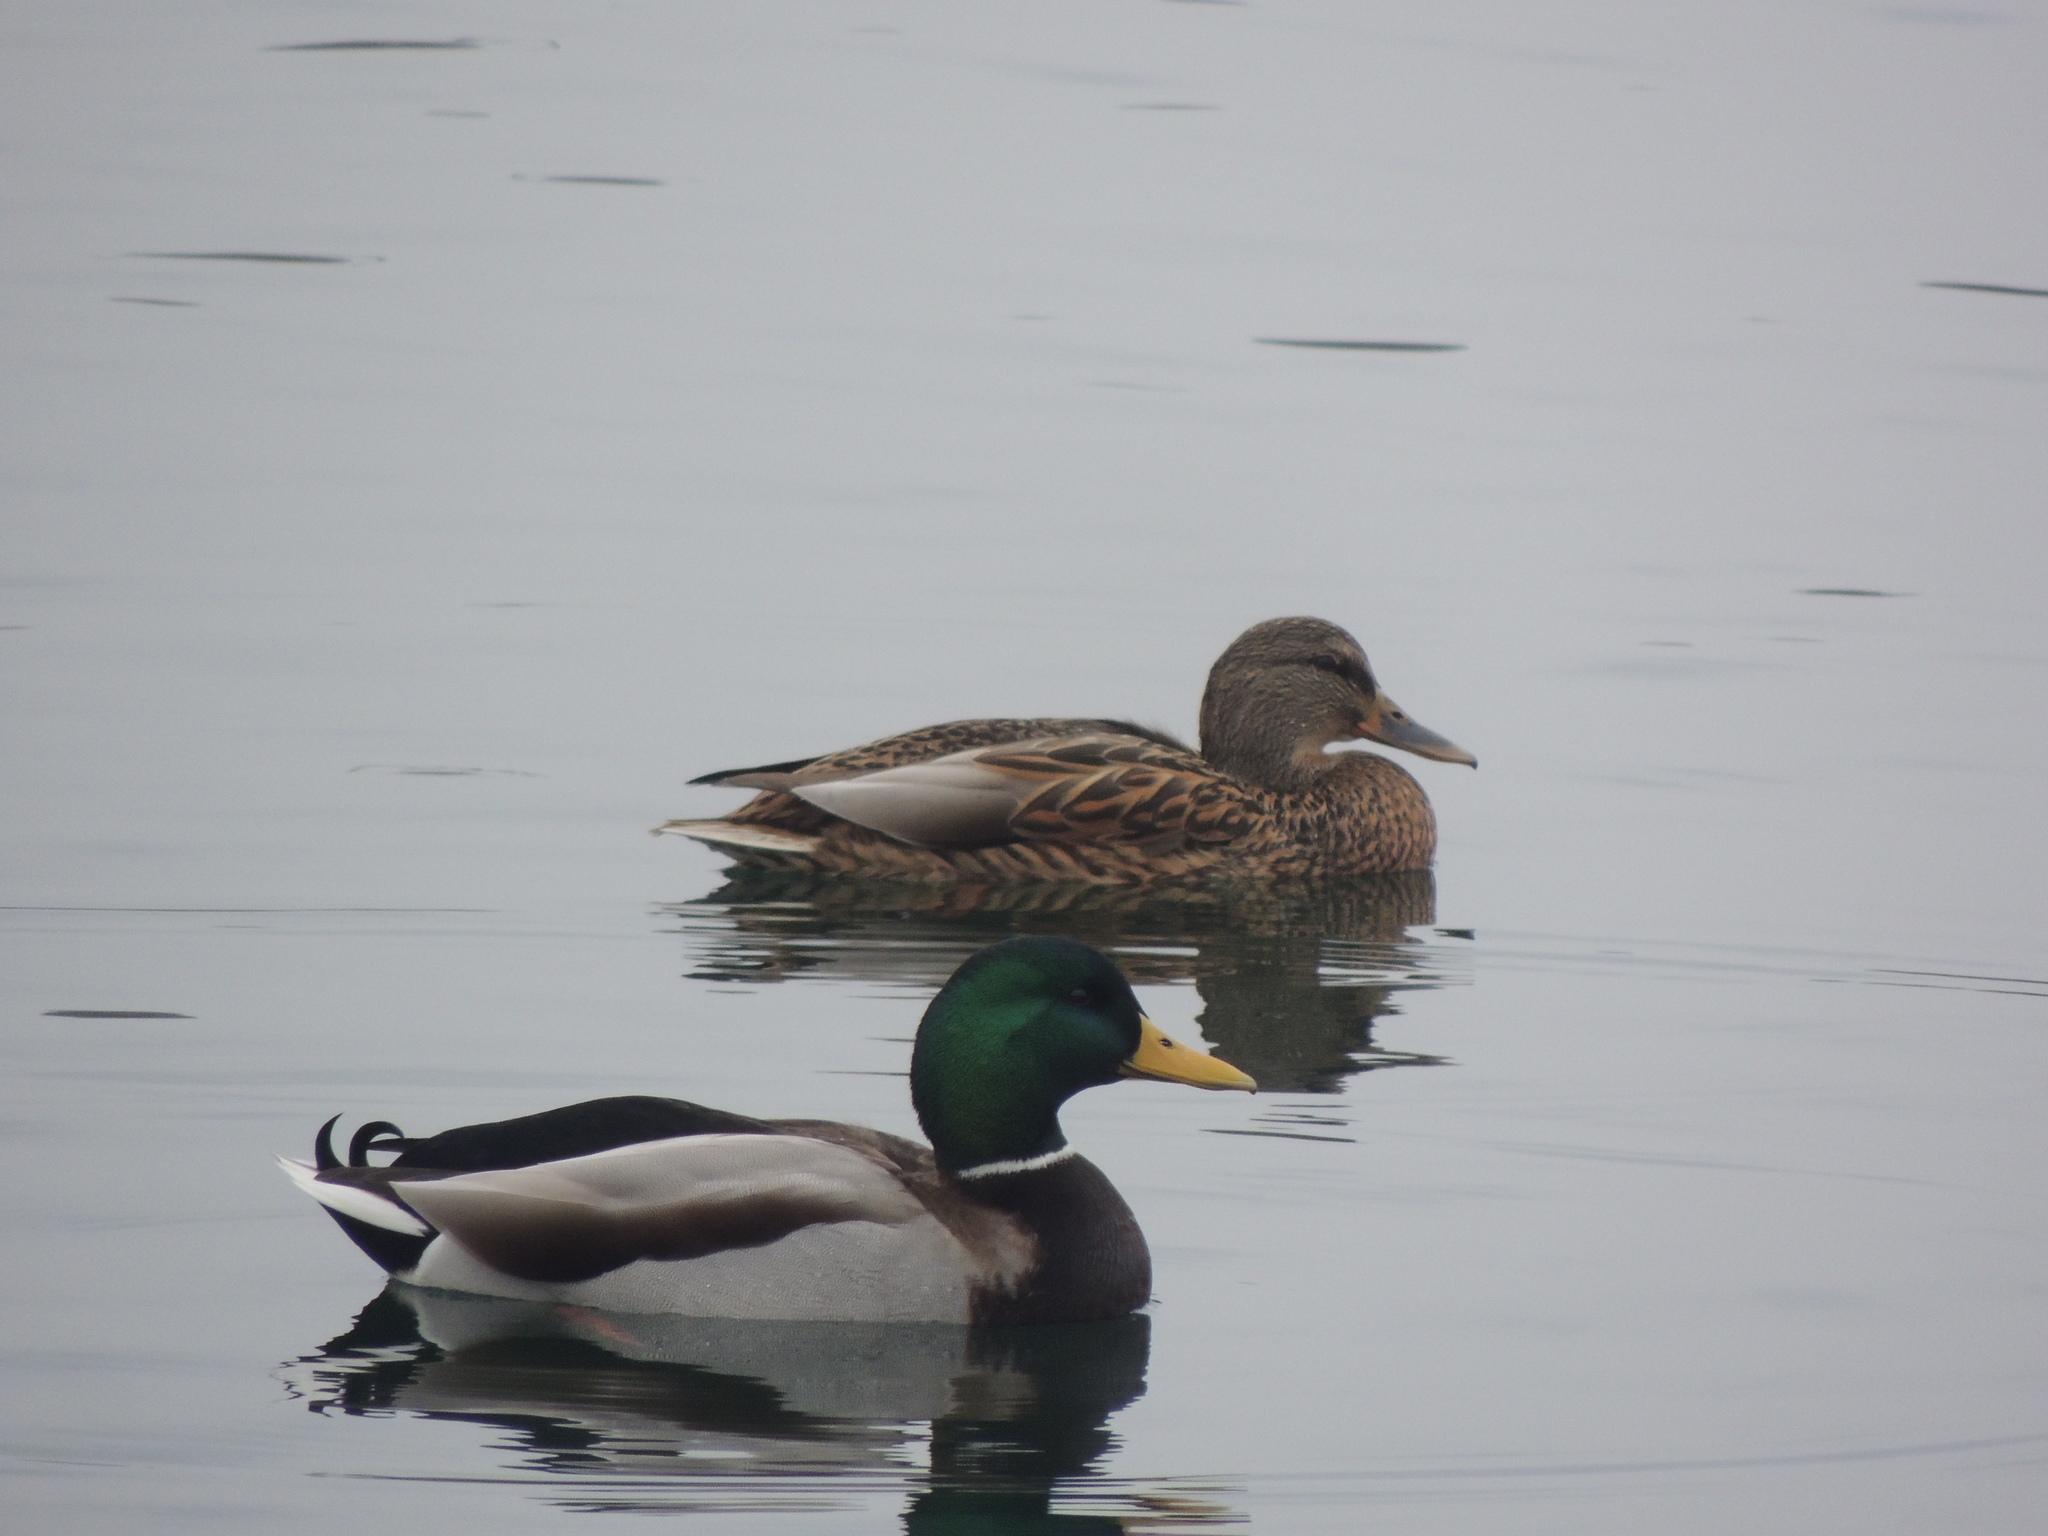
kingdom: Animalia
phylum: Chordata
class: Aves
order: Anseriformes
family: Anatidae
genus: Anas
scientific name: Anas platyrhynchos
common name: Mallard
